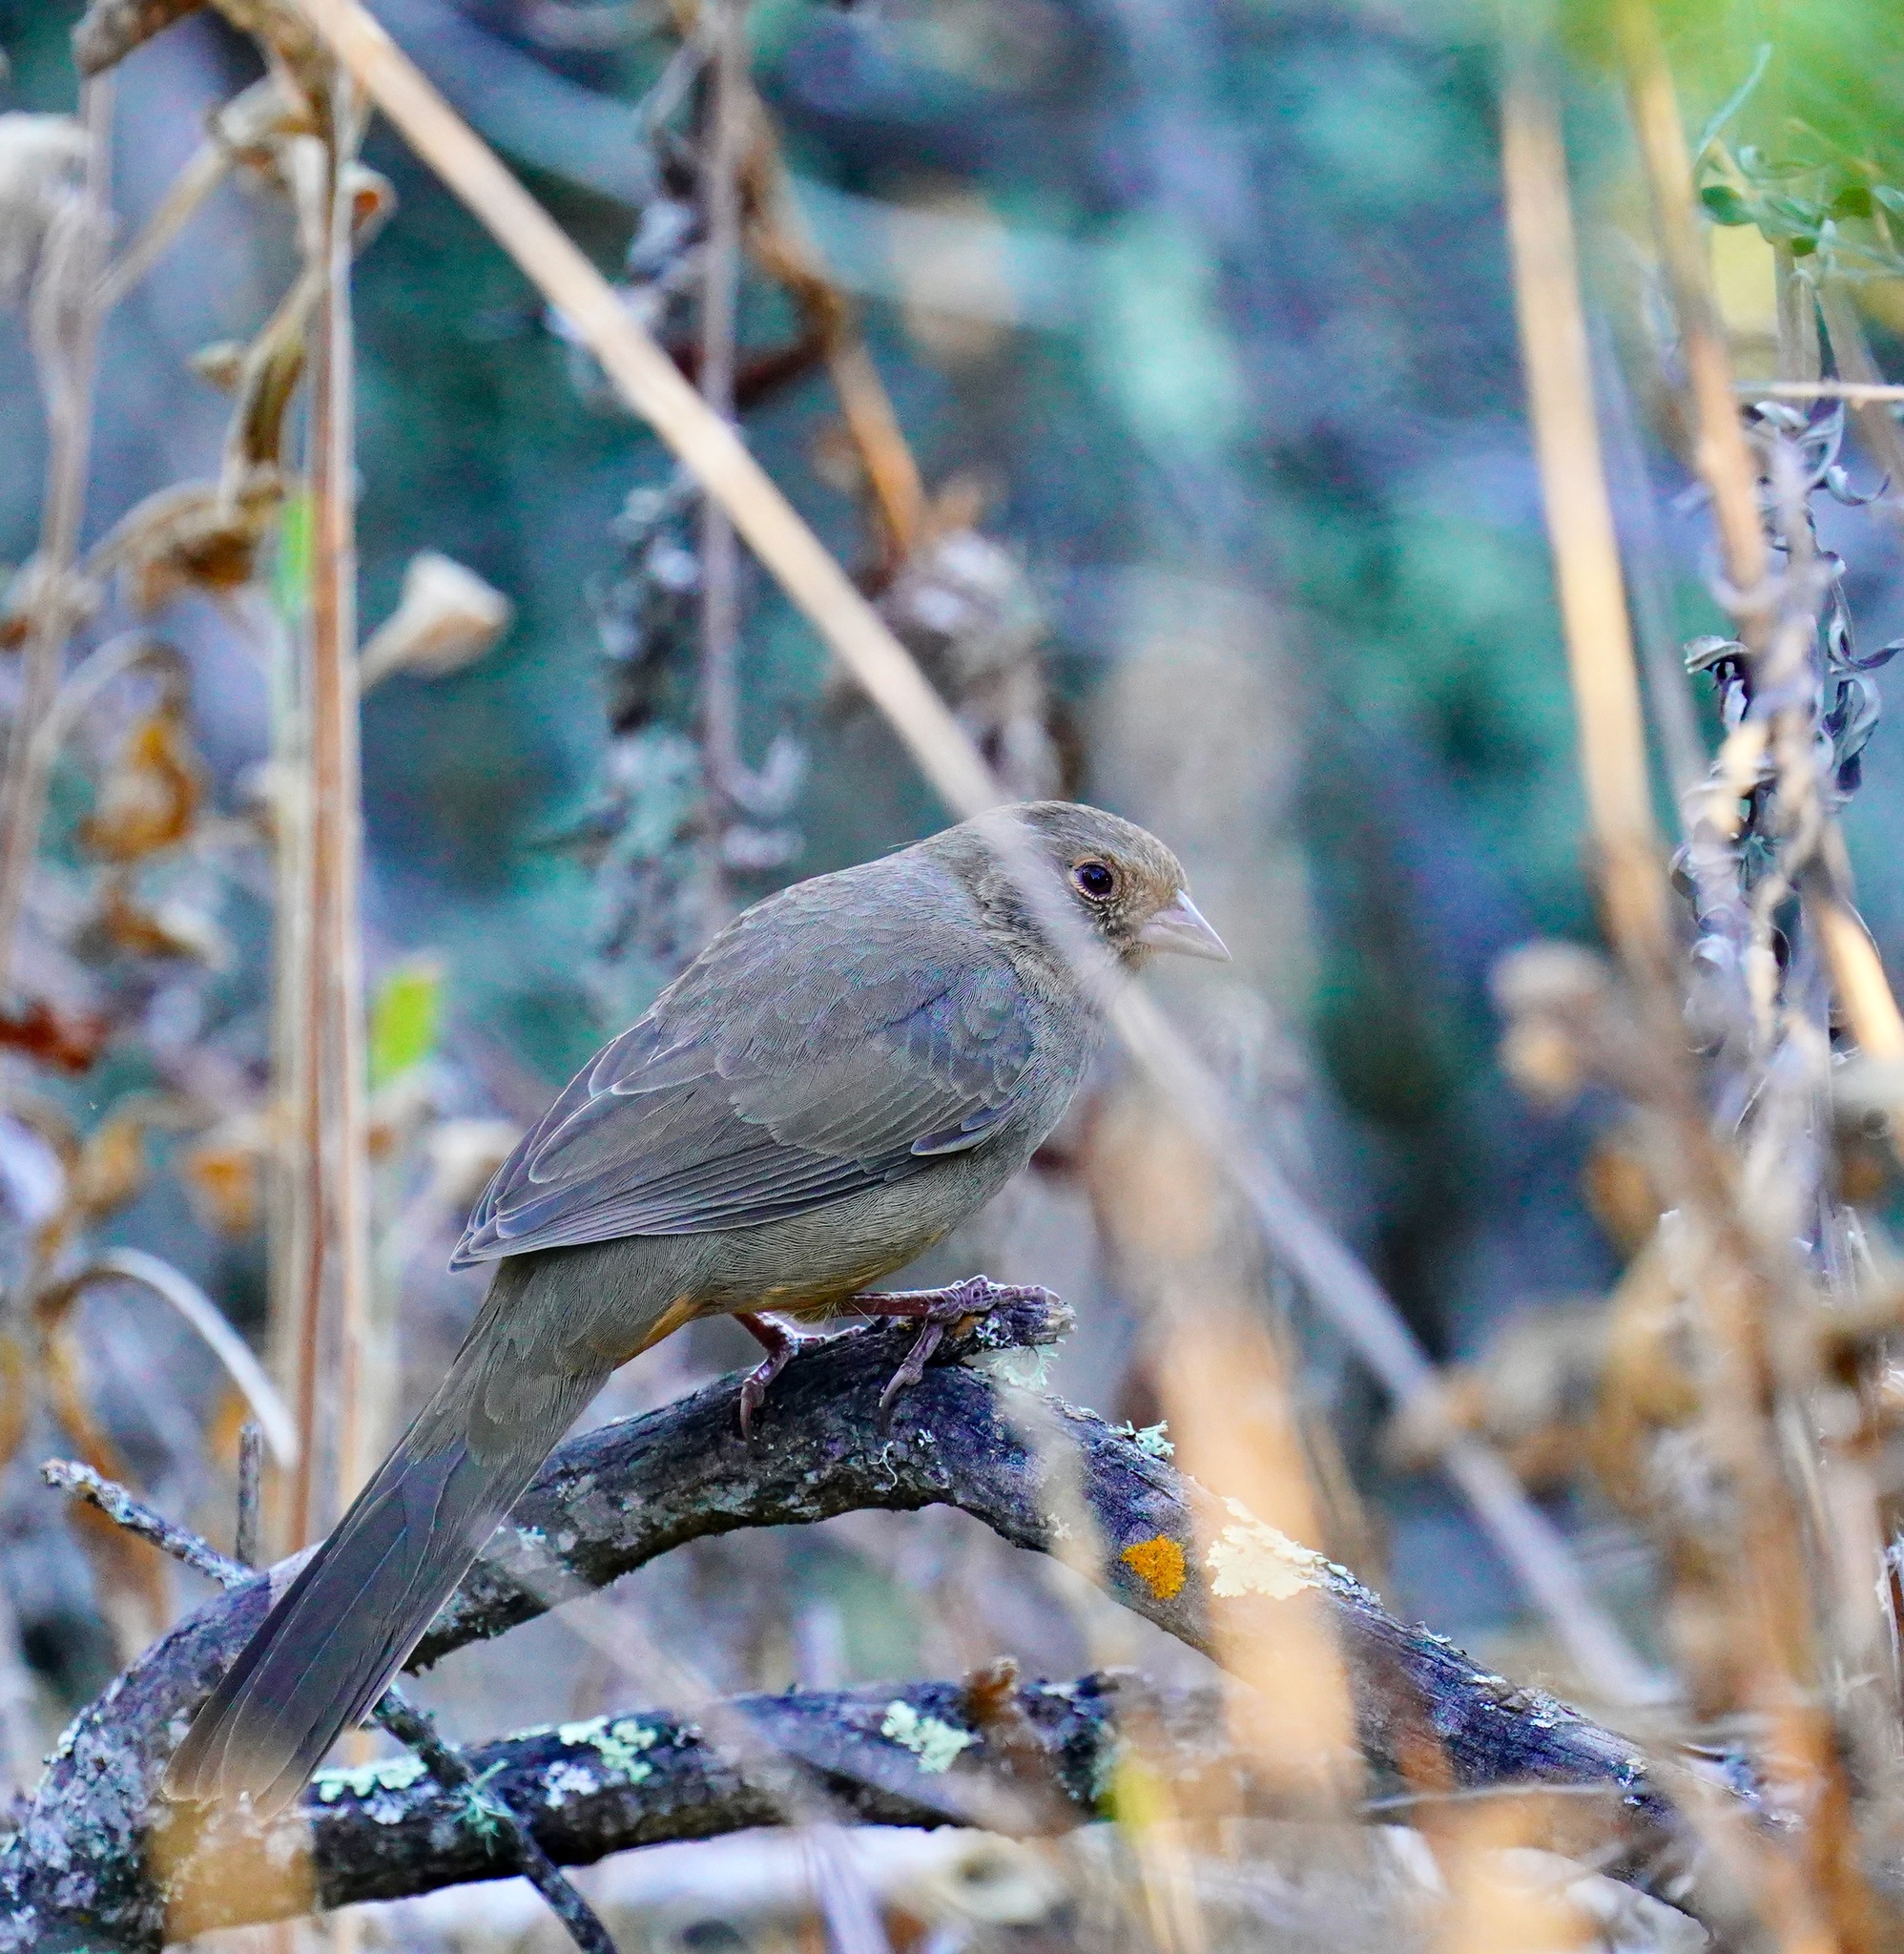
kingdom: Animalia
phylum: Chordata
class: Aves
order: Passeriformes
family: Passerellidae
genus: Melozone
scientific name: Melozone crissalis
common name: California towhee
